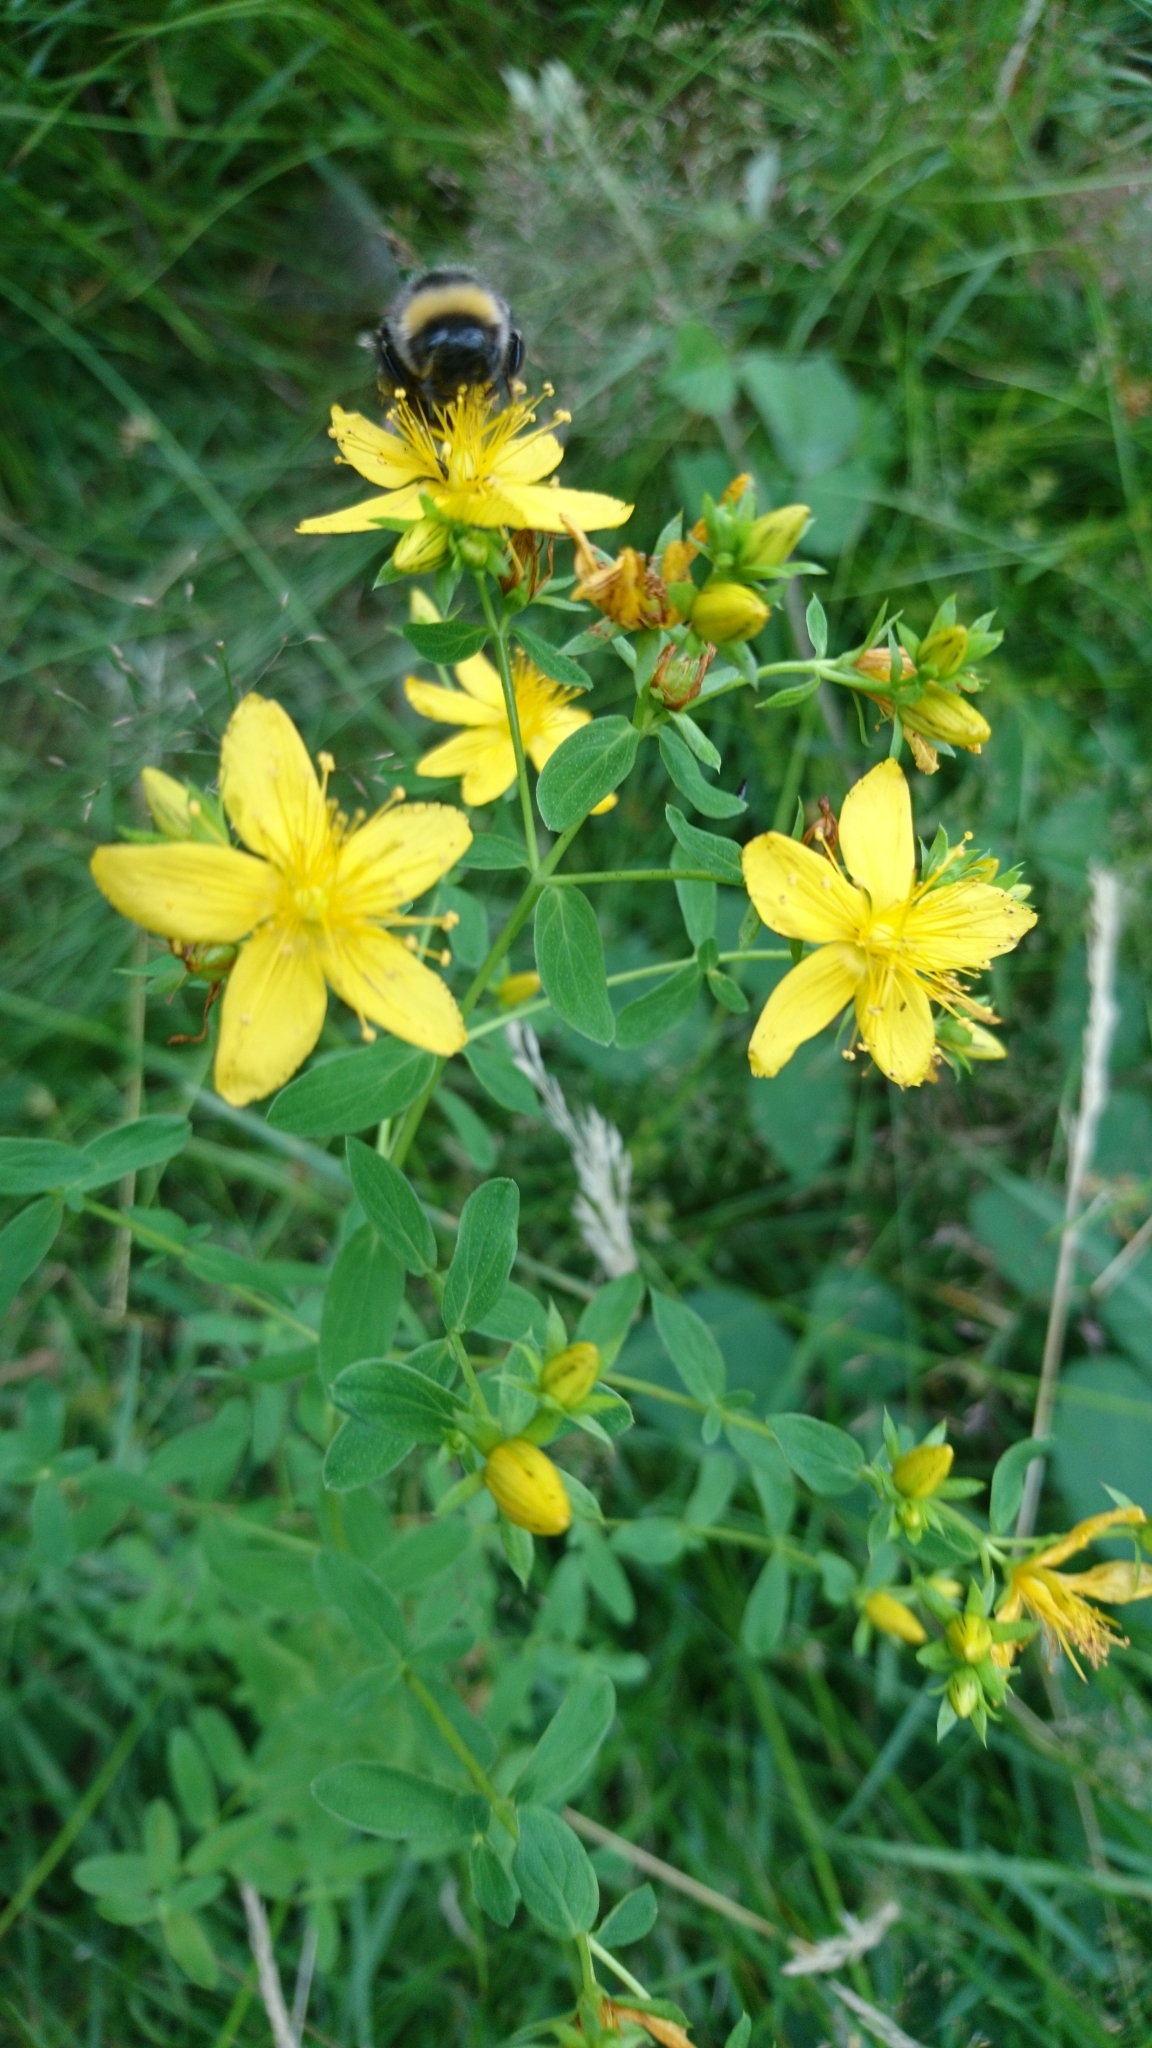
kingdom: Plantae
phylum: Tracheophyta
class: Magnoliopsida
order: Malpighiales
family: Hypericaceae
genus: Hypericum
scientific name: Hypericum perforatum
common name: Common st. johnswort
